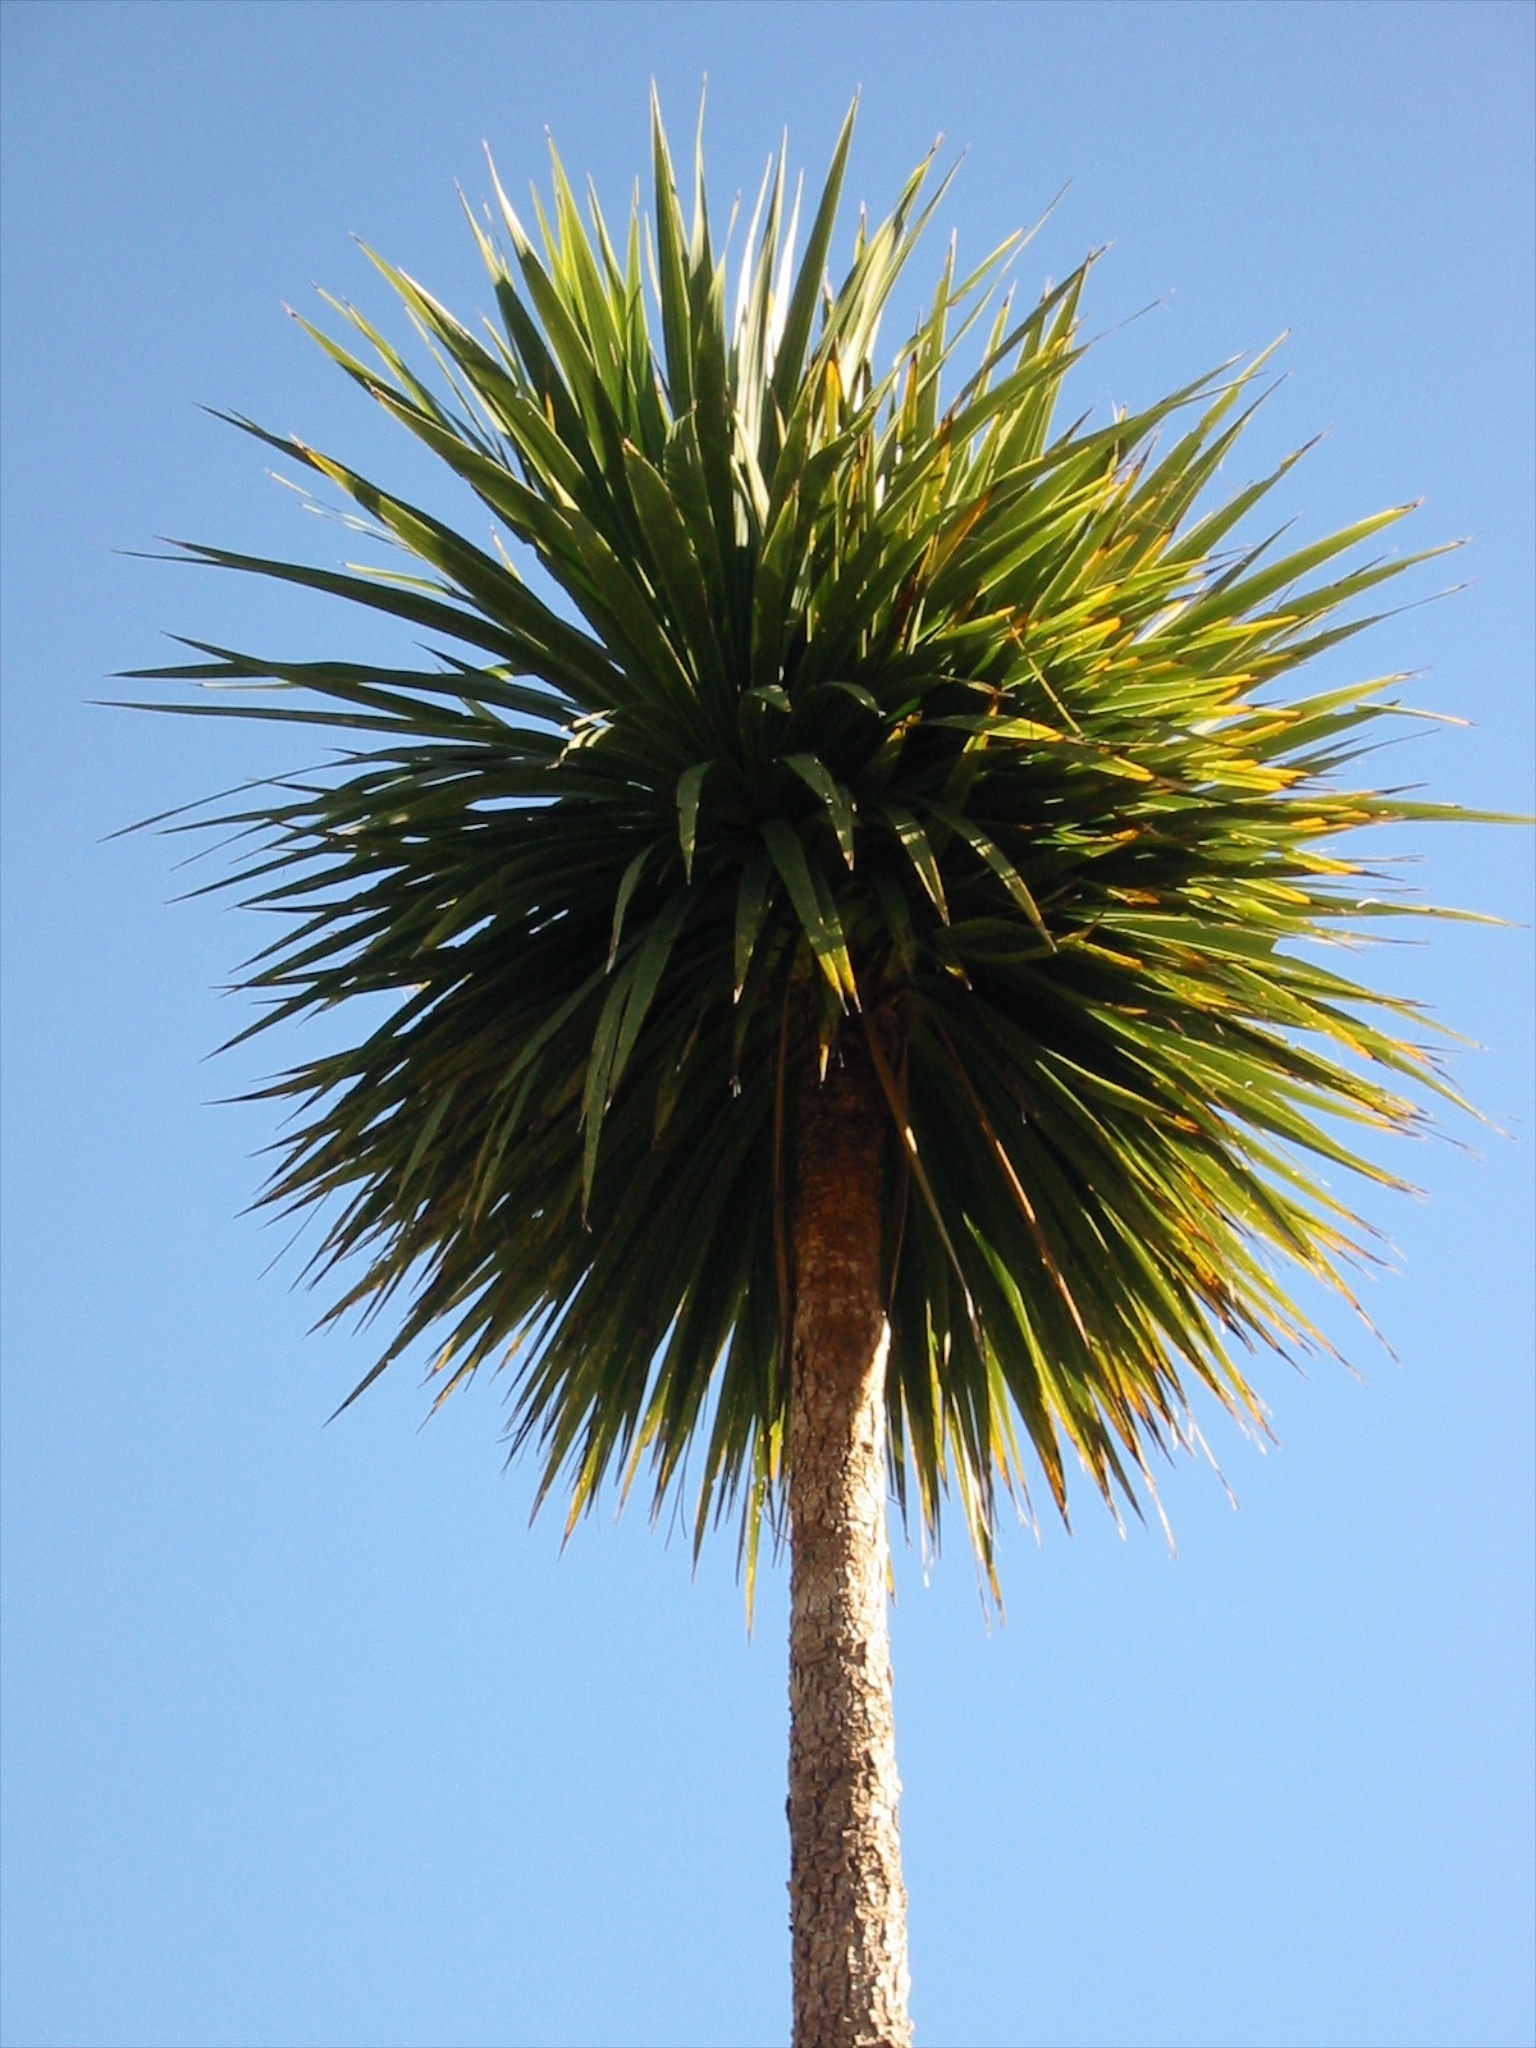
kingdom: Plantae
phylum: Tracheophyta
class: Liliopsida
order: Asparagales
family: Asparagaceae
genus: Cordyline
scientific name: Cordyline australis
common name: Cabbage-palm
